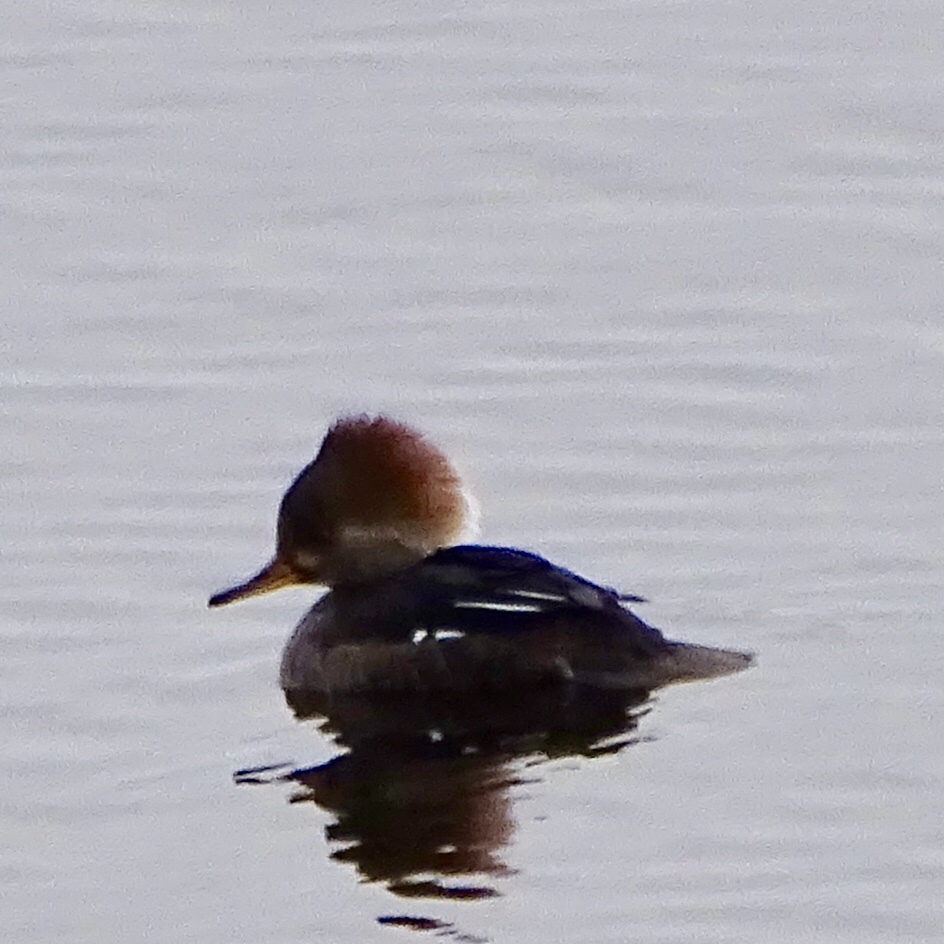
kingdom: Animalia
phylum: Chordata
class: Aves
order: Anseriformes
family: Anatidae
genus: Lophodytes
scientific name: Lophodytes cucullatus
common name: Hooded merganser
